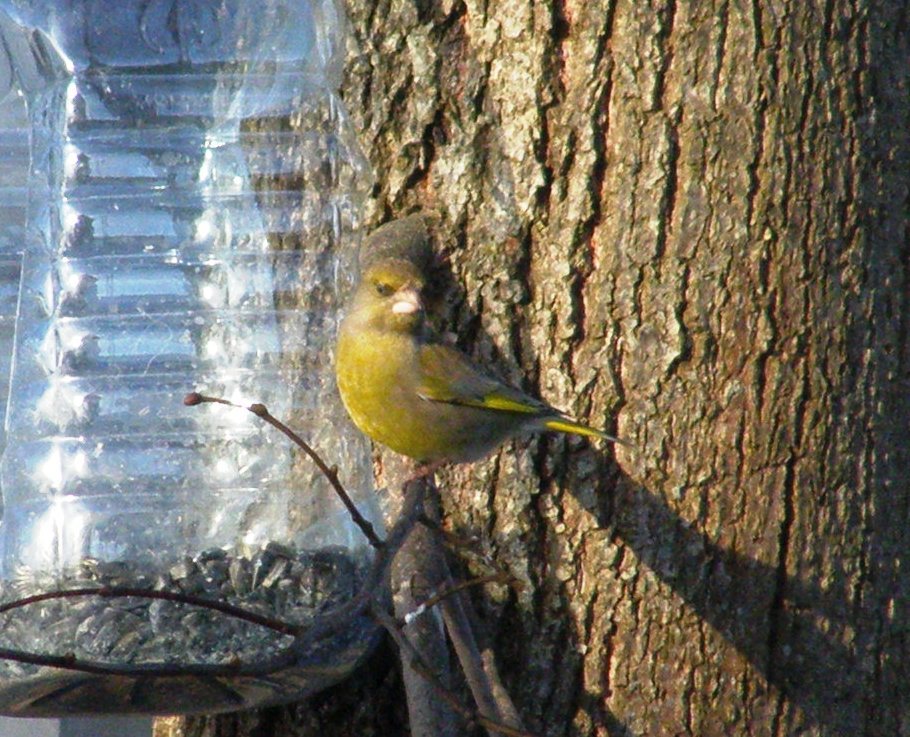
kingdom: Plantae
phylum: Tracheophyta
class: Liliopsida
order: Poales
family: Poaceae
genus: Chloris
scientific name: Chloris chloris
